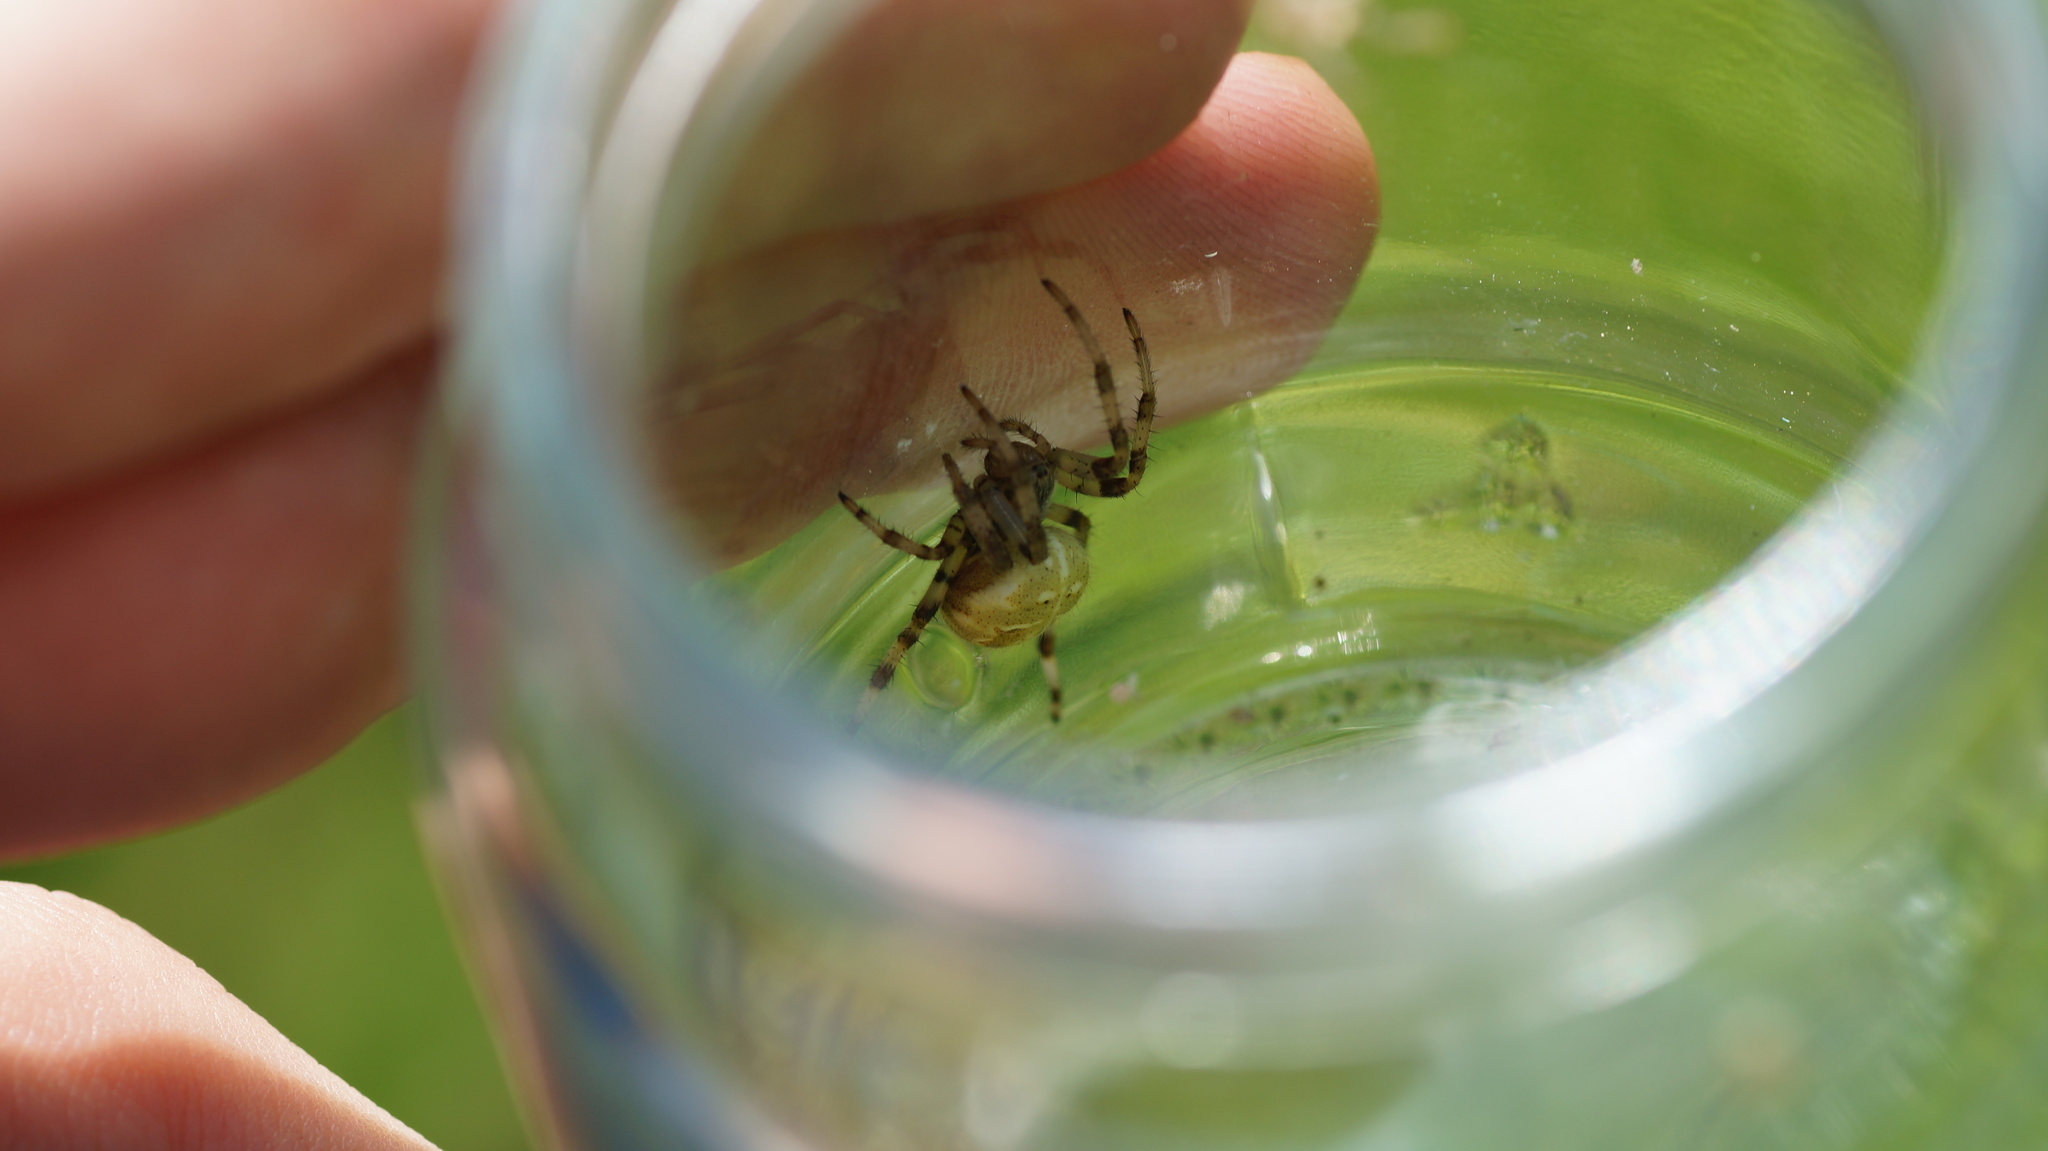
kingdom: Animalia
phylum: Arthropoda
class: Arachnida
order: Araneae
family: Araneidae
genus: Araneus
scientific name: Araneus quadratus
